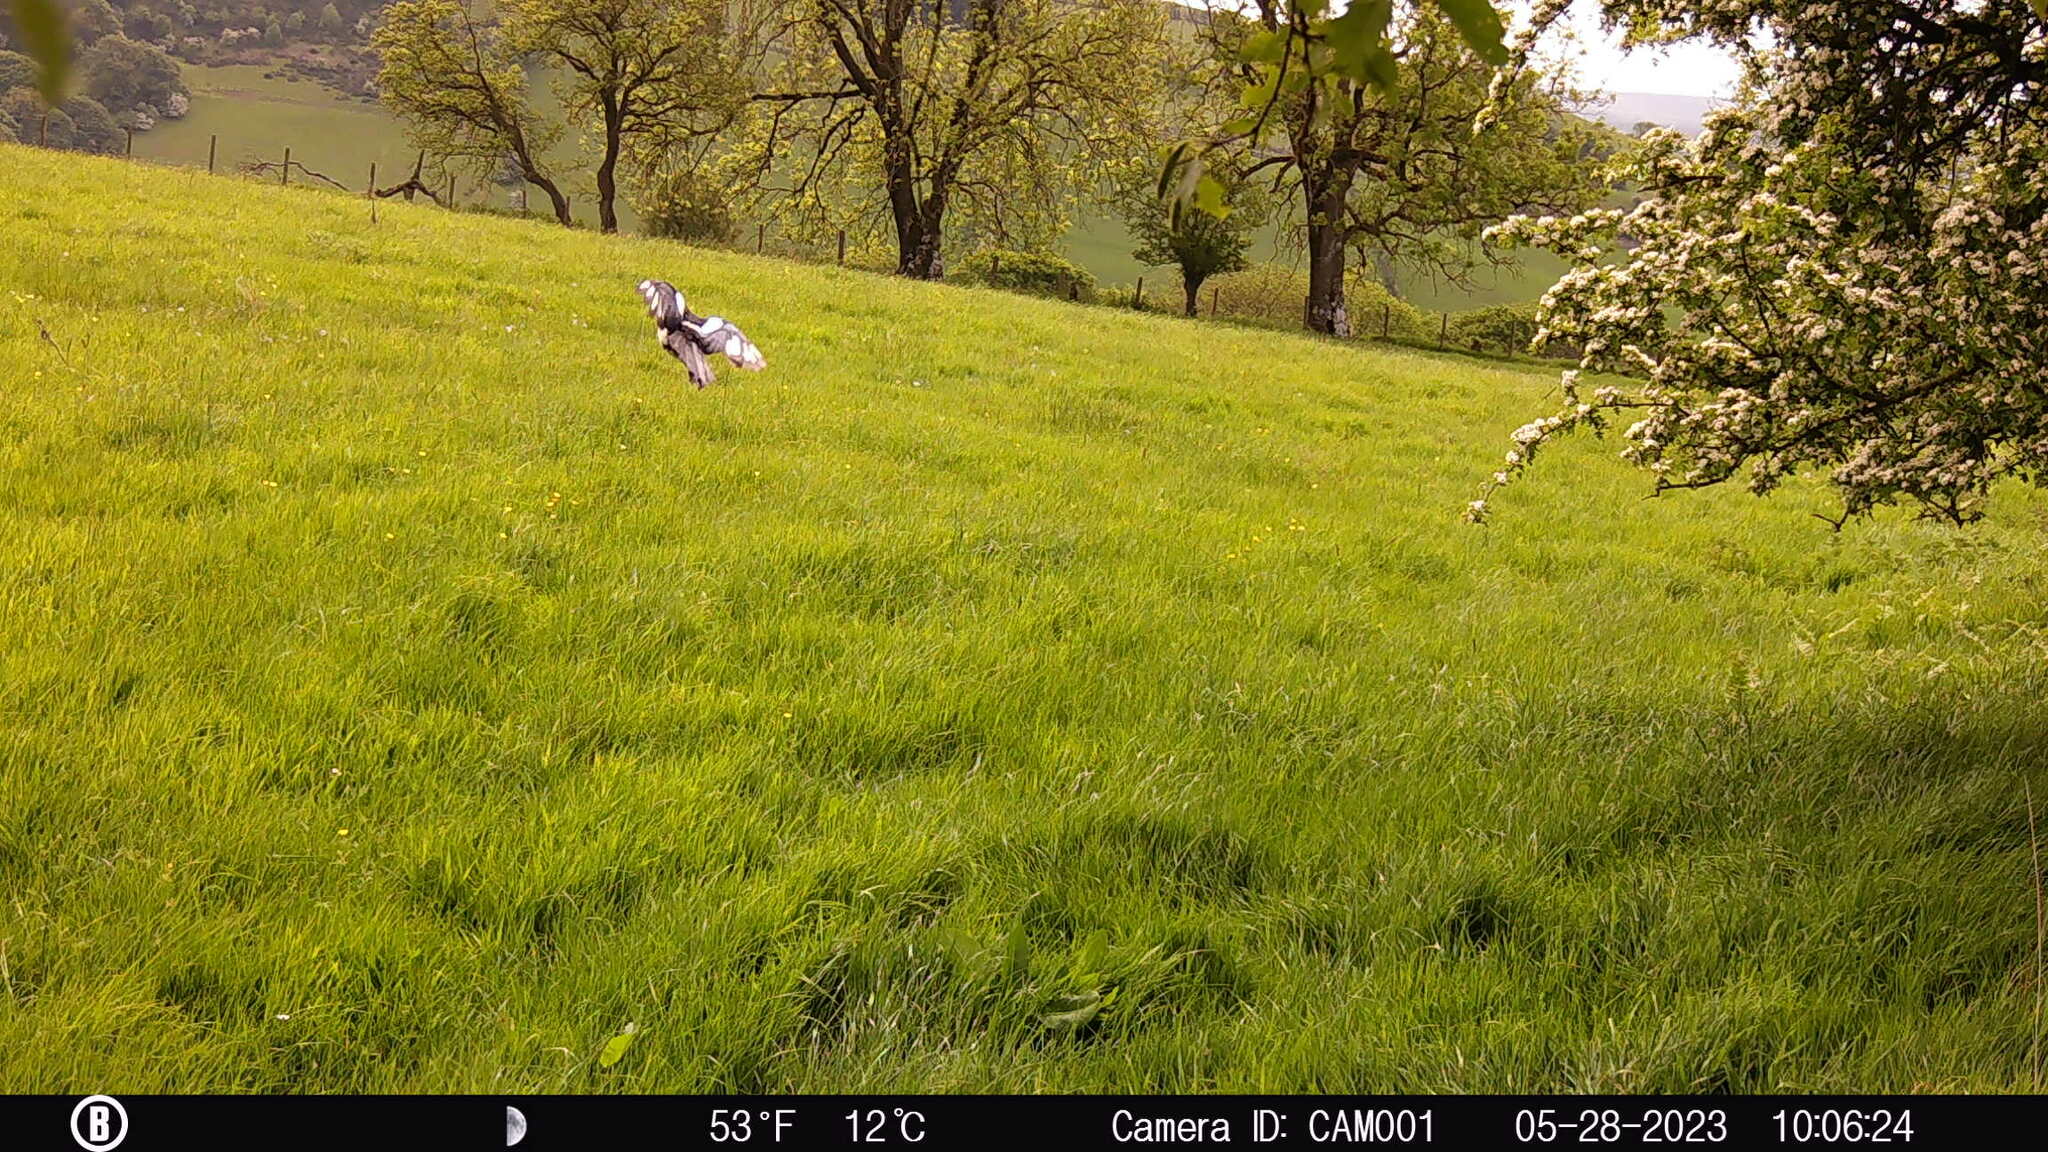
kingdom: Animalia
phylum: Chordata
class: Aves
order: Passeriformes
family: Corvidae
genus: Pica
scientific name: Pica pica
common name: Eurasian magpie
